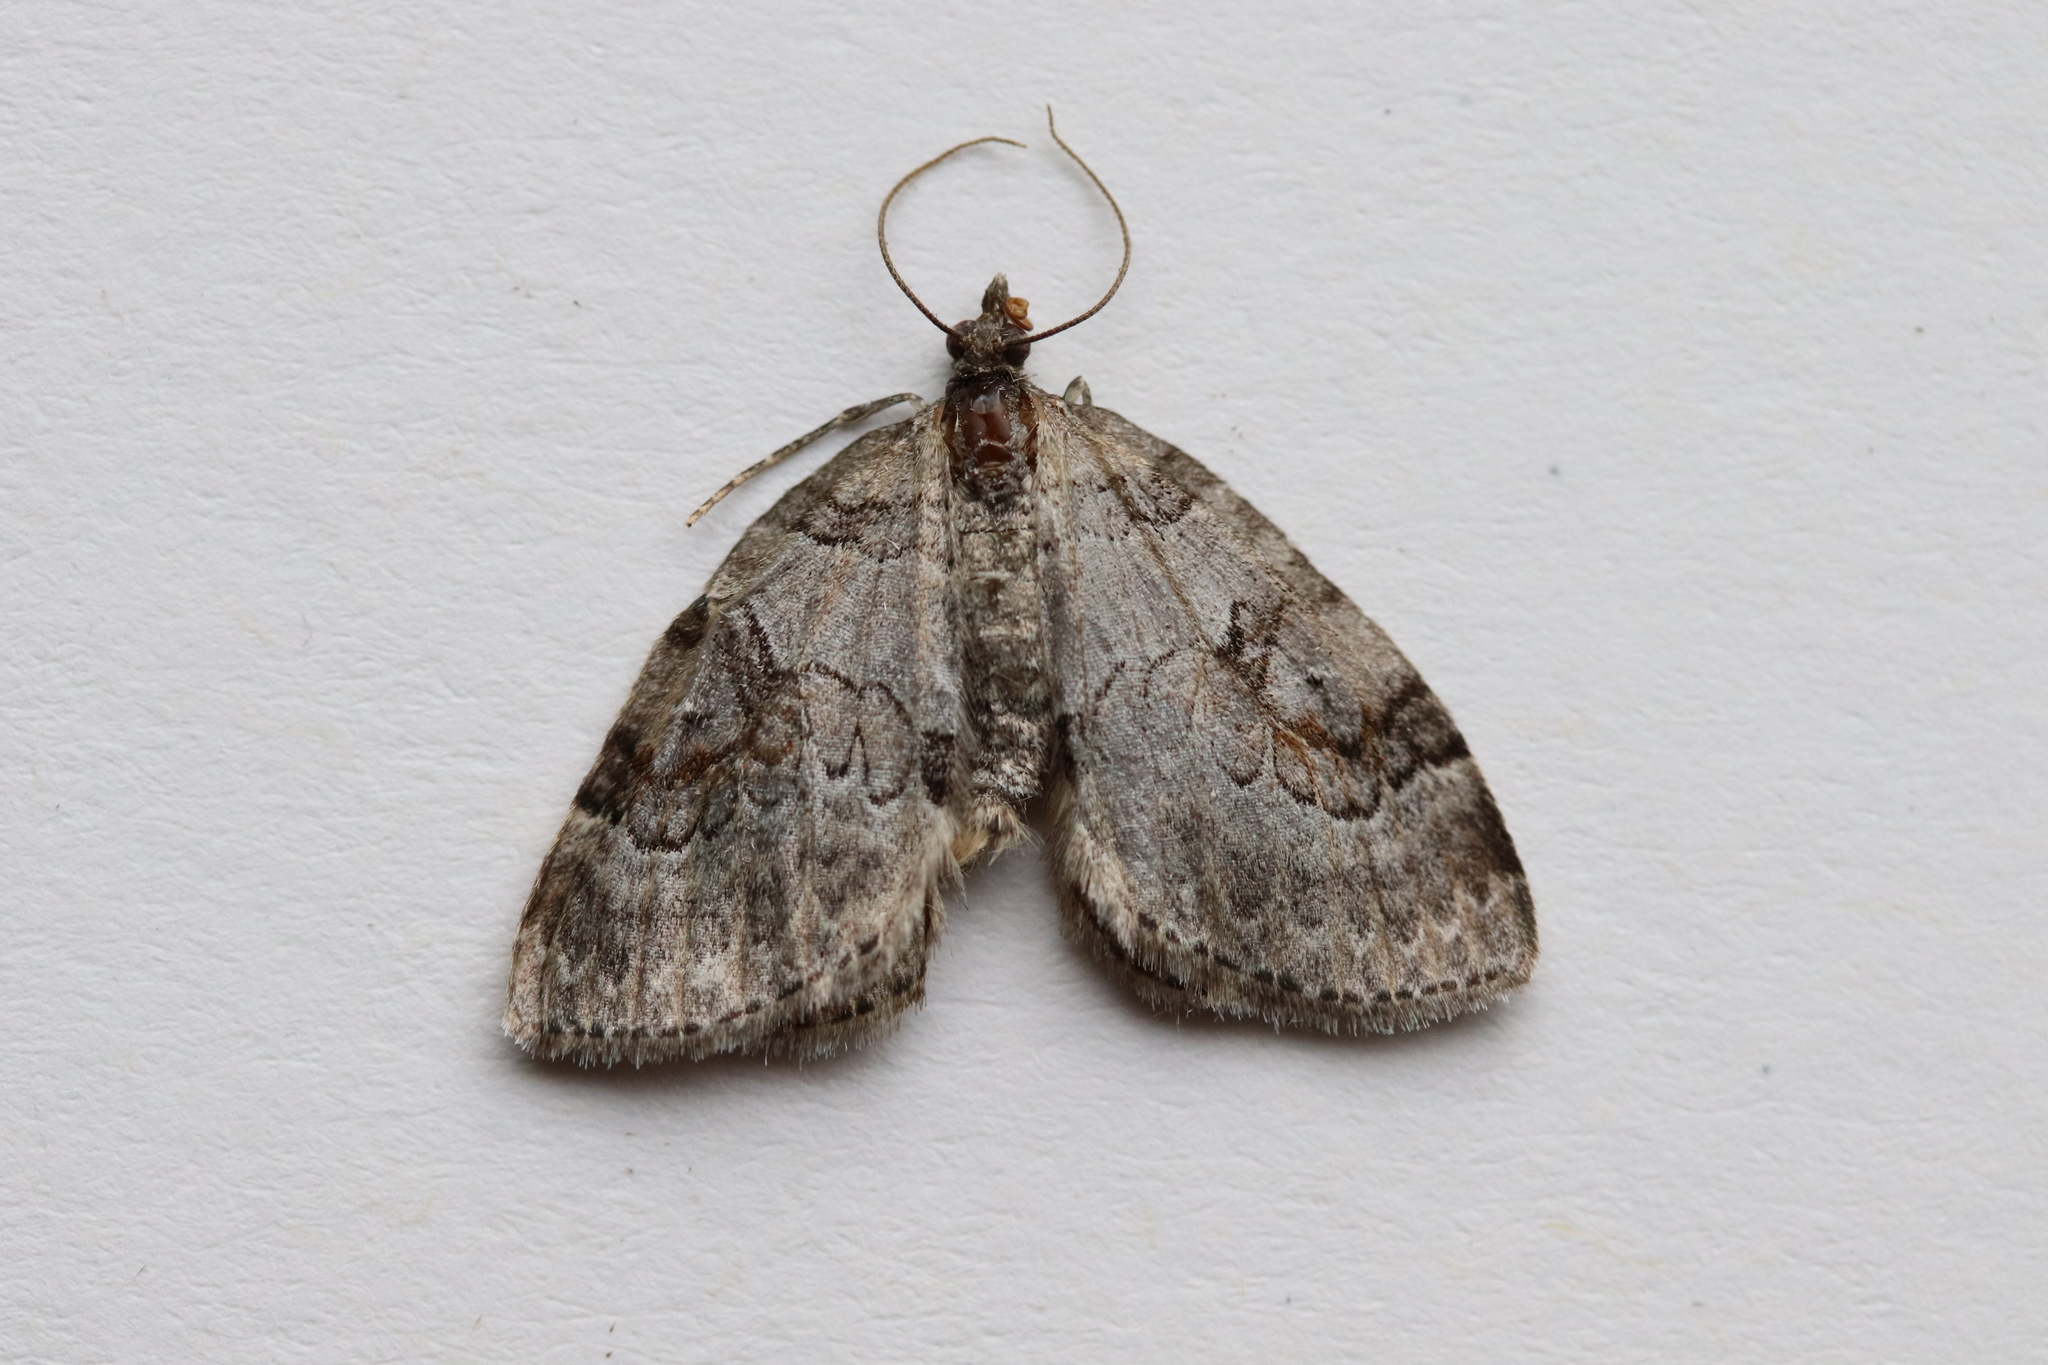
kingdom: Animalia
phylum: Arthropoda
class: Insecta
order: Lepidoptera
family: Geometridae
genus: Plemyria
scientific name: Plemyria georgii
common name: George's carpet moth
